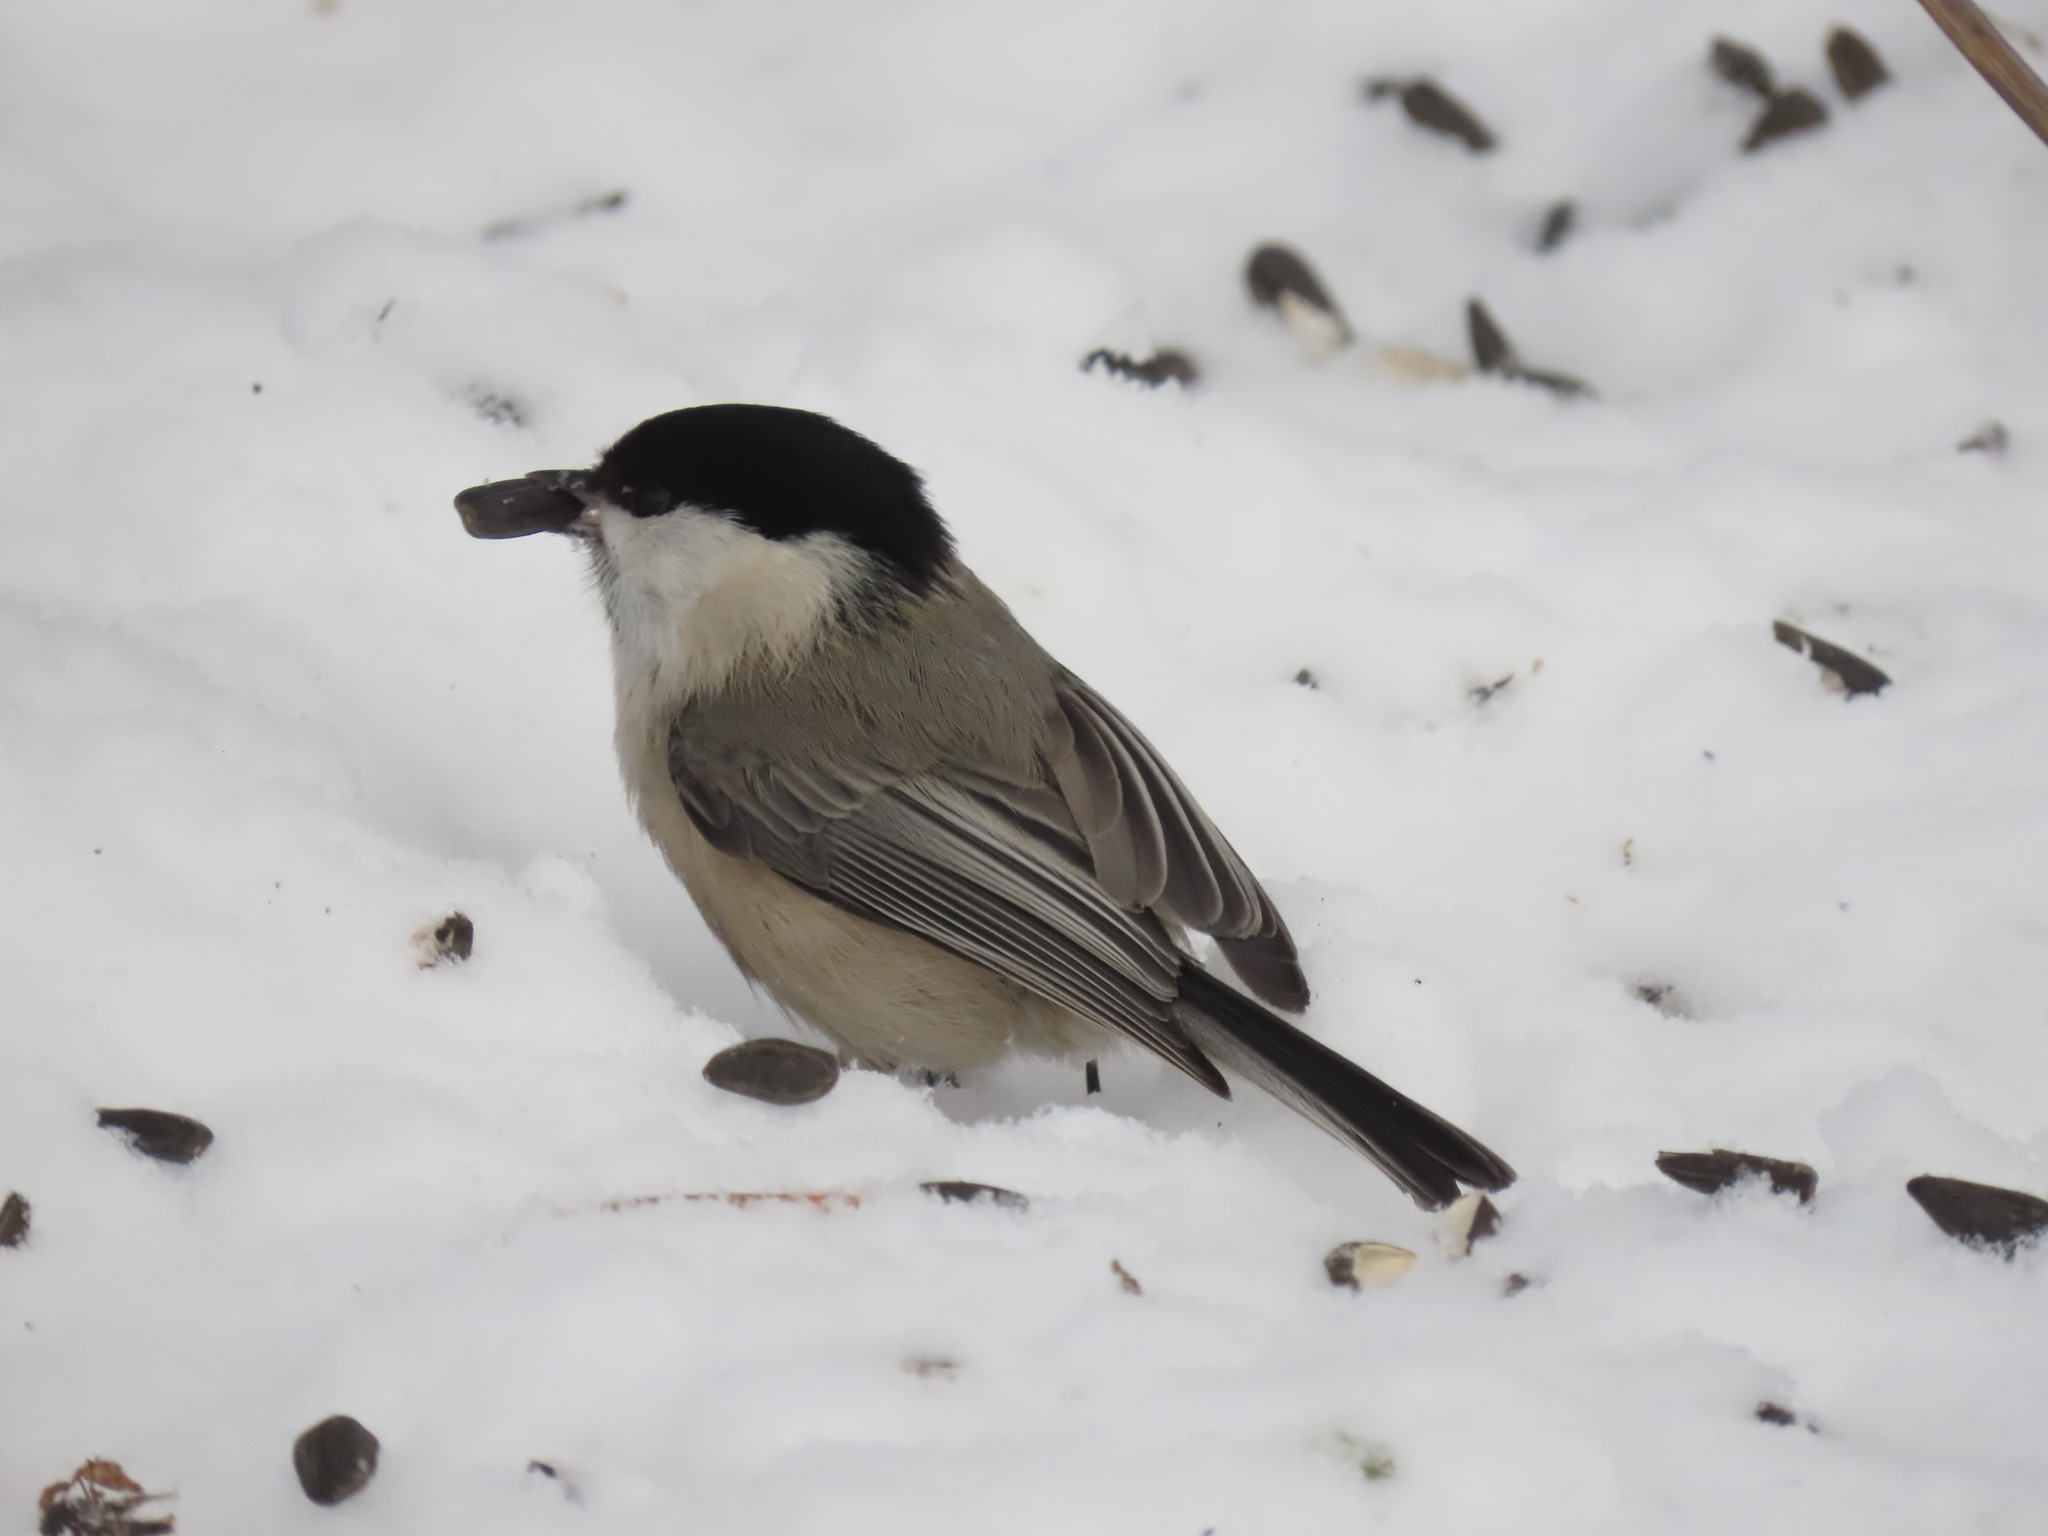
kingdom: Animalia
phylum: Chordata
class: Aves
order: Passeriformes
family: Paridae
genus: Poecile
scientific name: Poecile palustris
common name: Marsh tit
